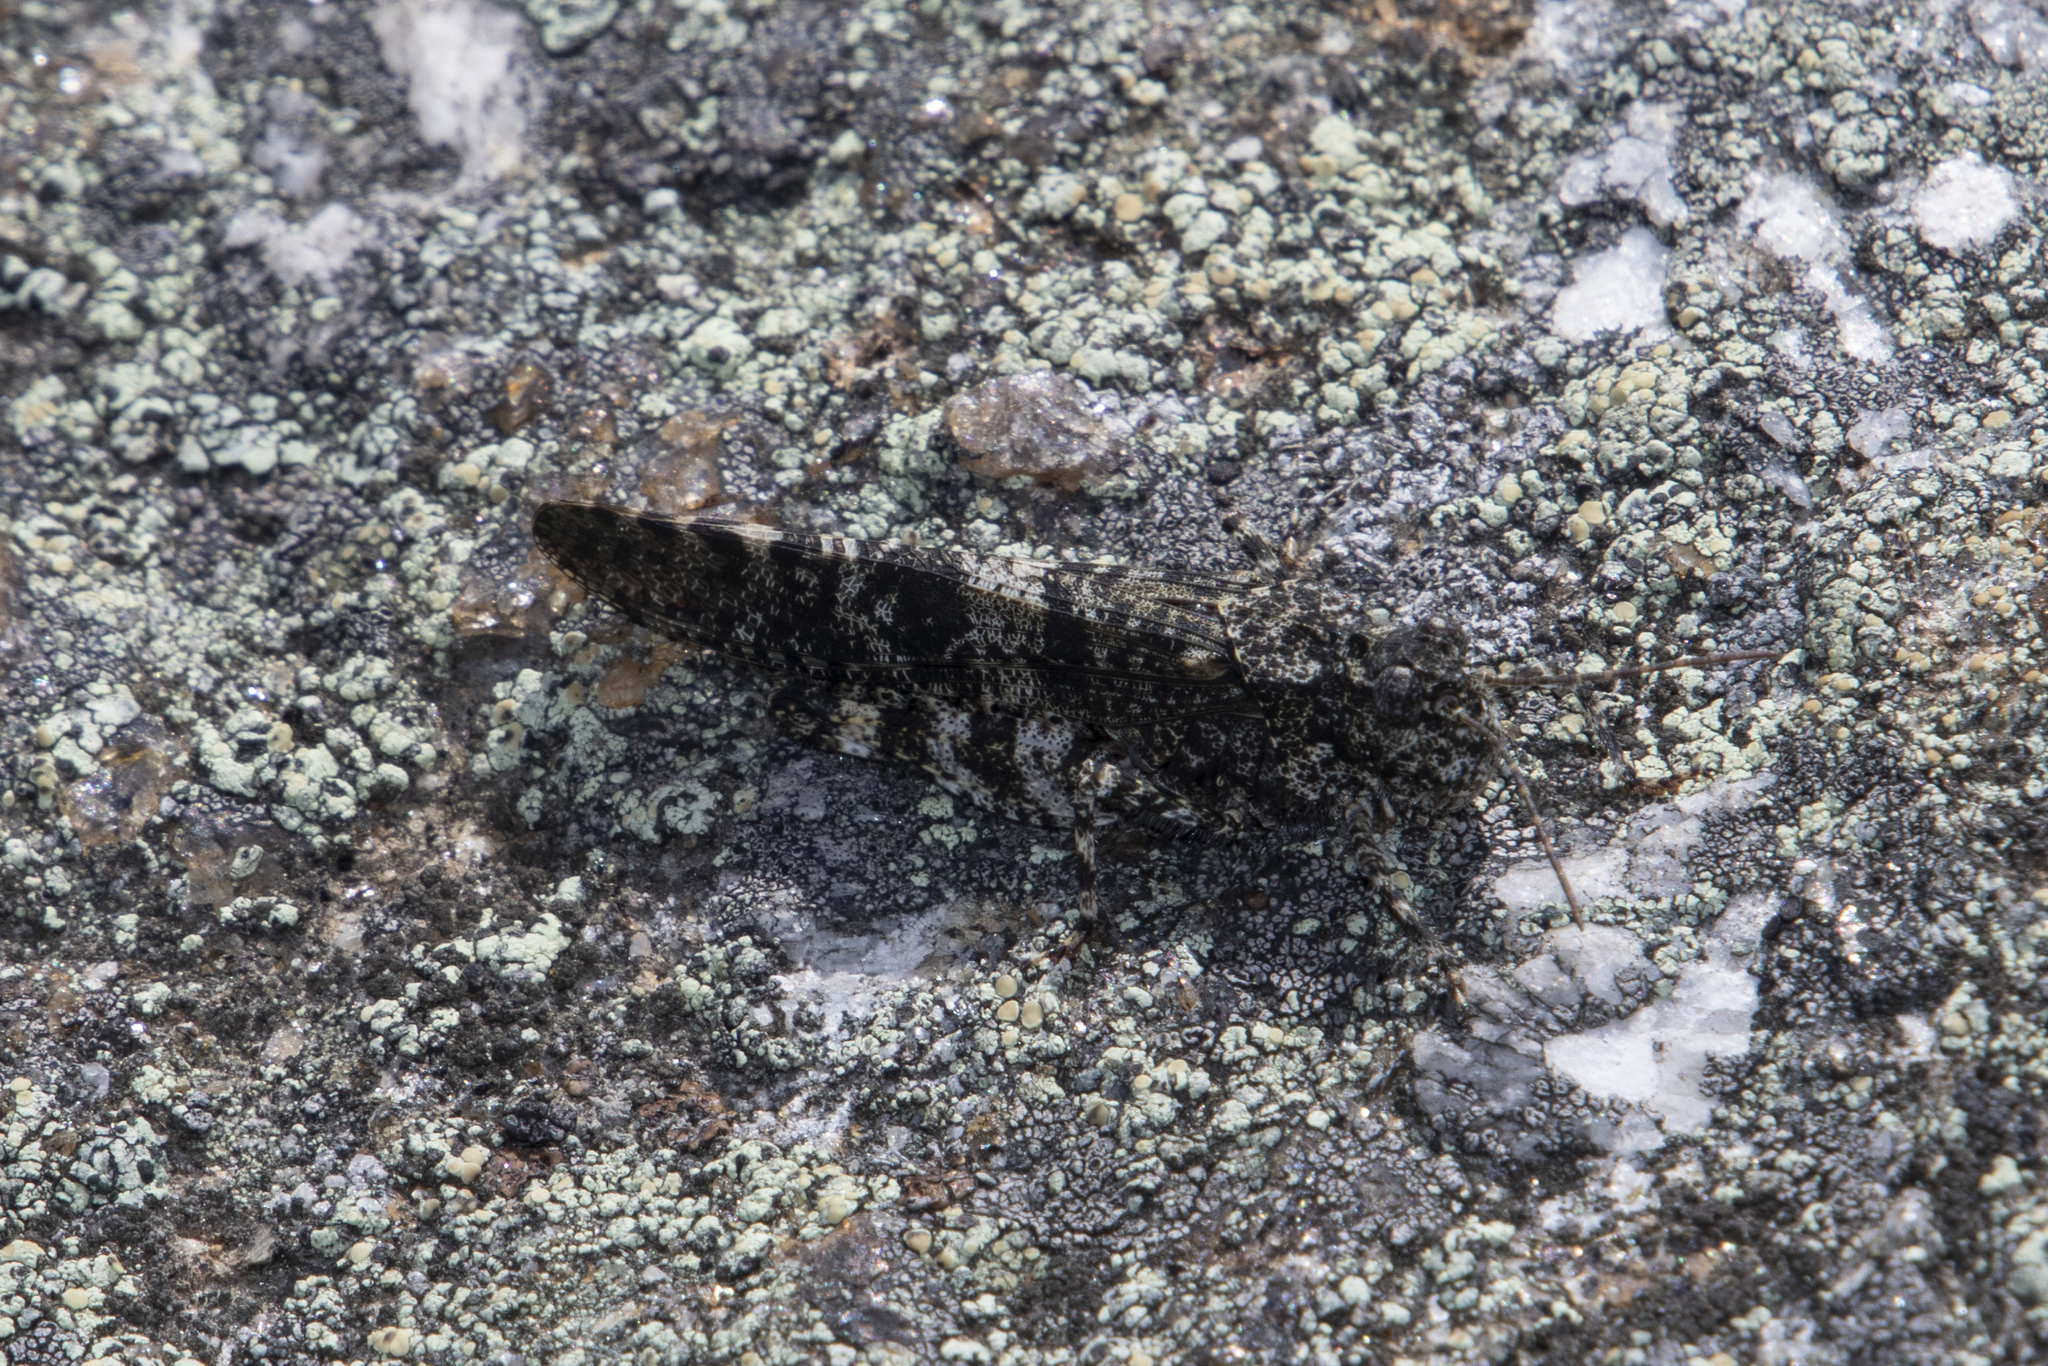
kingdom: Animalia
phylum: Arthropoda
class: Insecta
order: Orthoptera
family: Acrididae
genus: Trimerotropis
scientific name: Trimerotropis verruculata
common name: Crackling forest grasshopper
